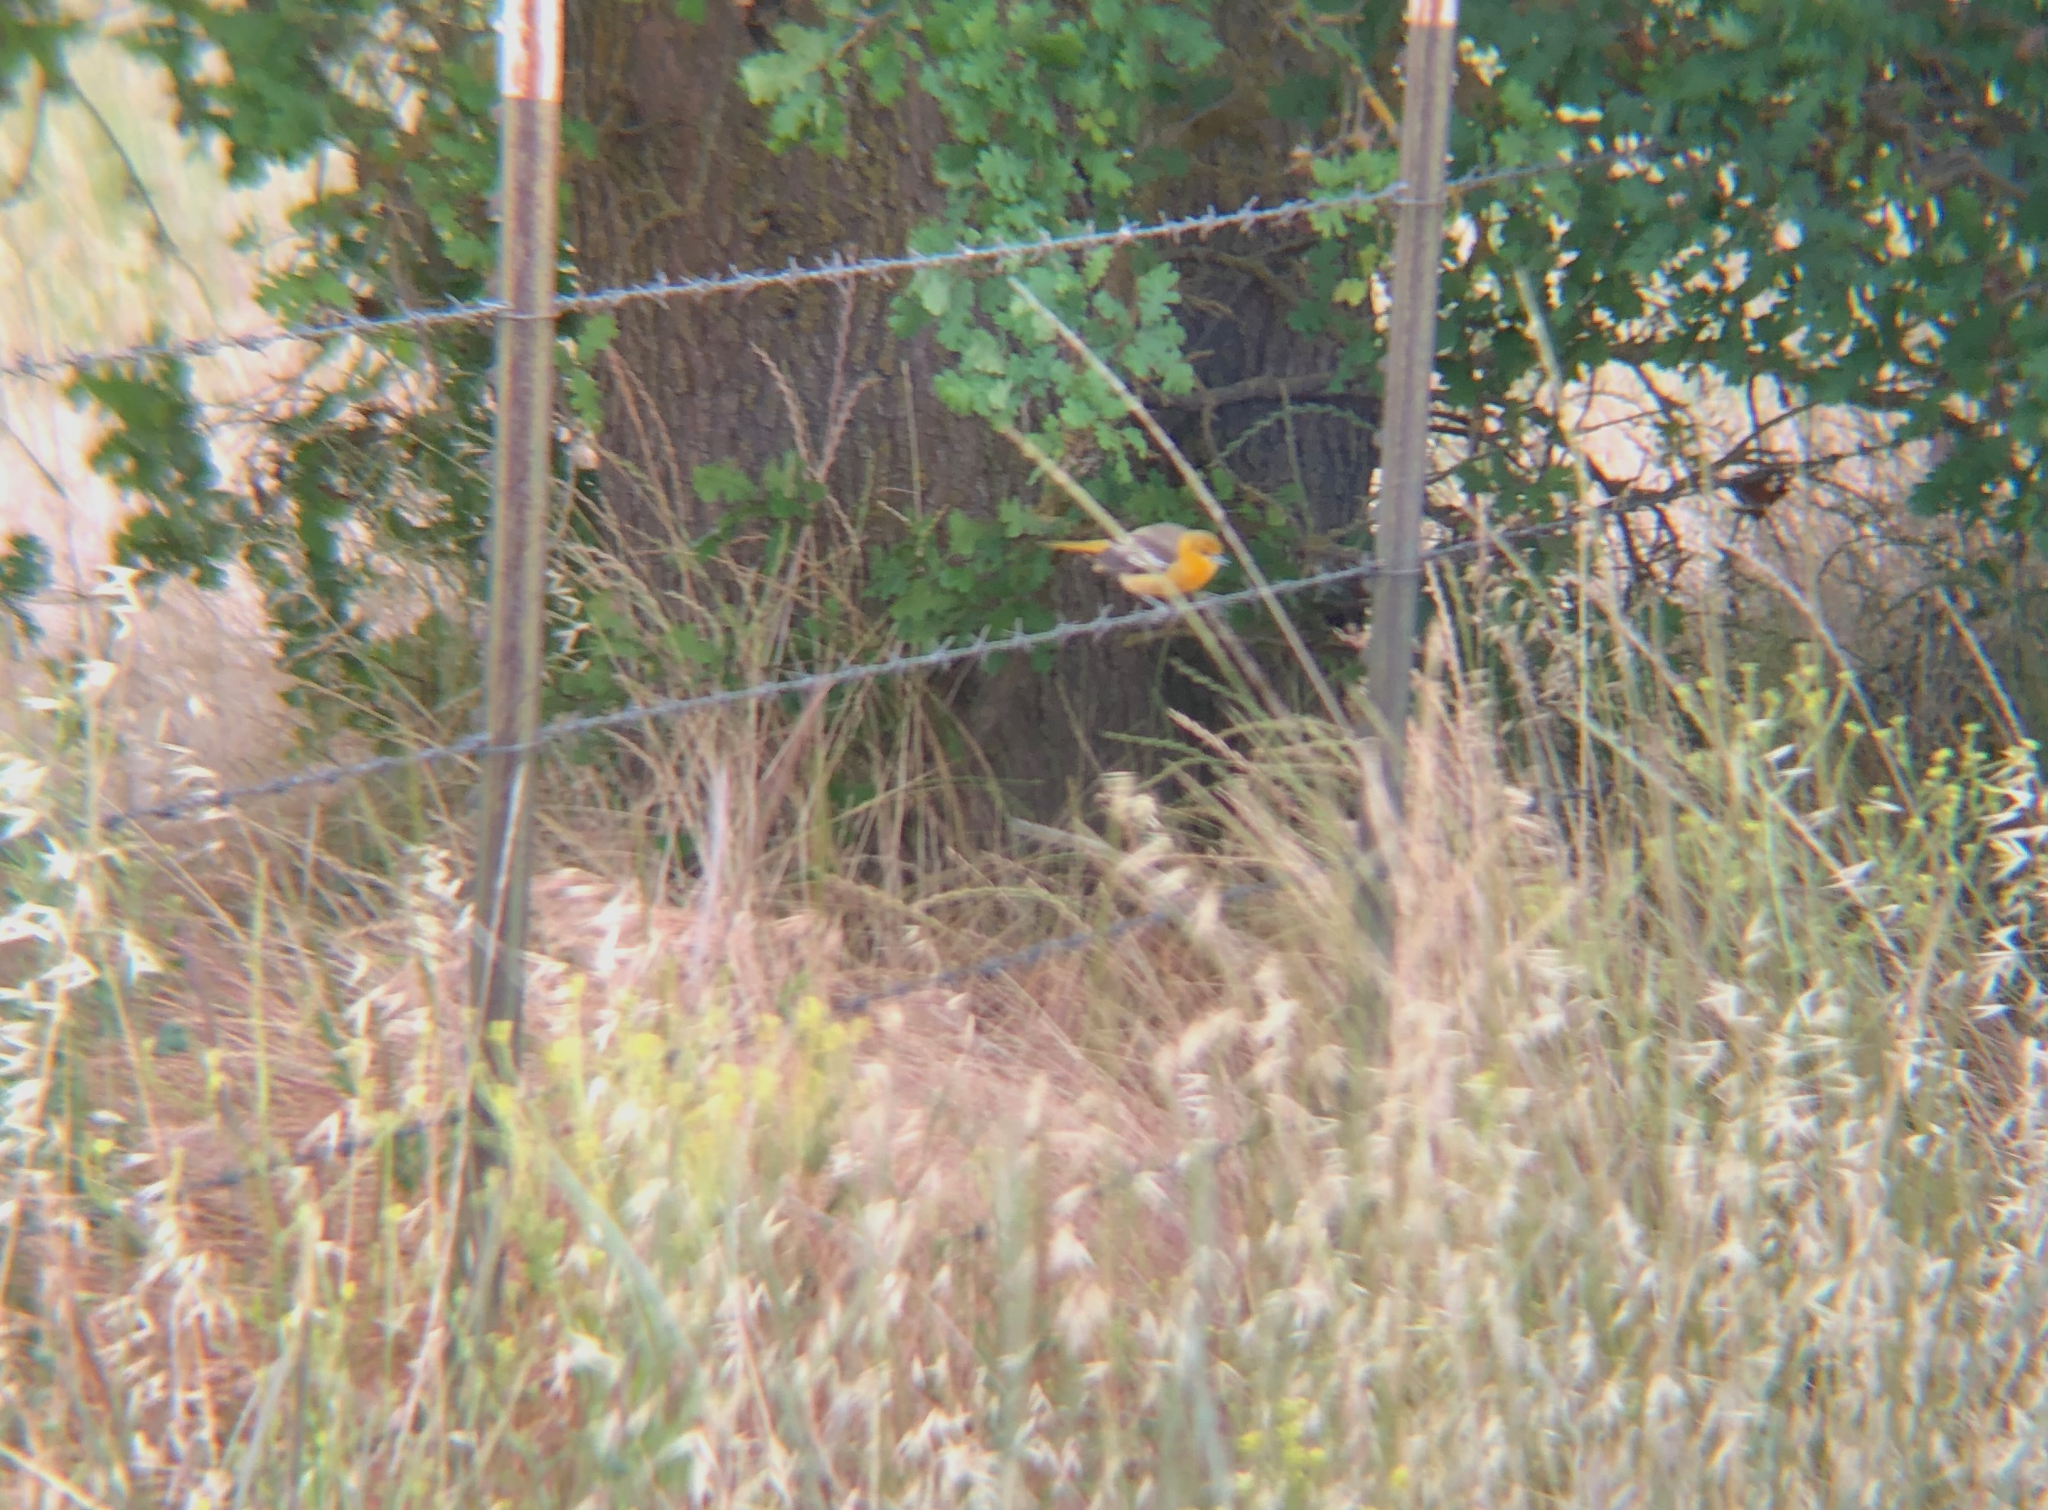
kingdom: Animalia
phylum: Chordata
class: Aves
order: Passeriformes
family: Icteridae
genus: Icterus
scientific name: Icterus bullockii
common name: Bullock's oriole
